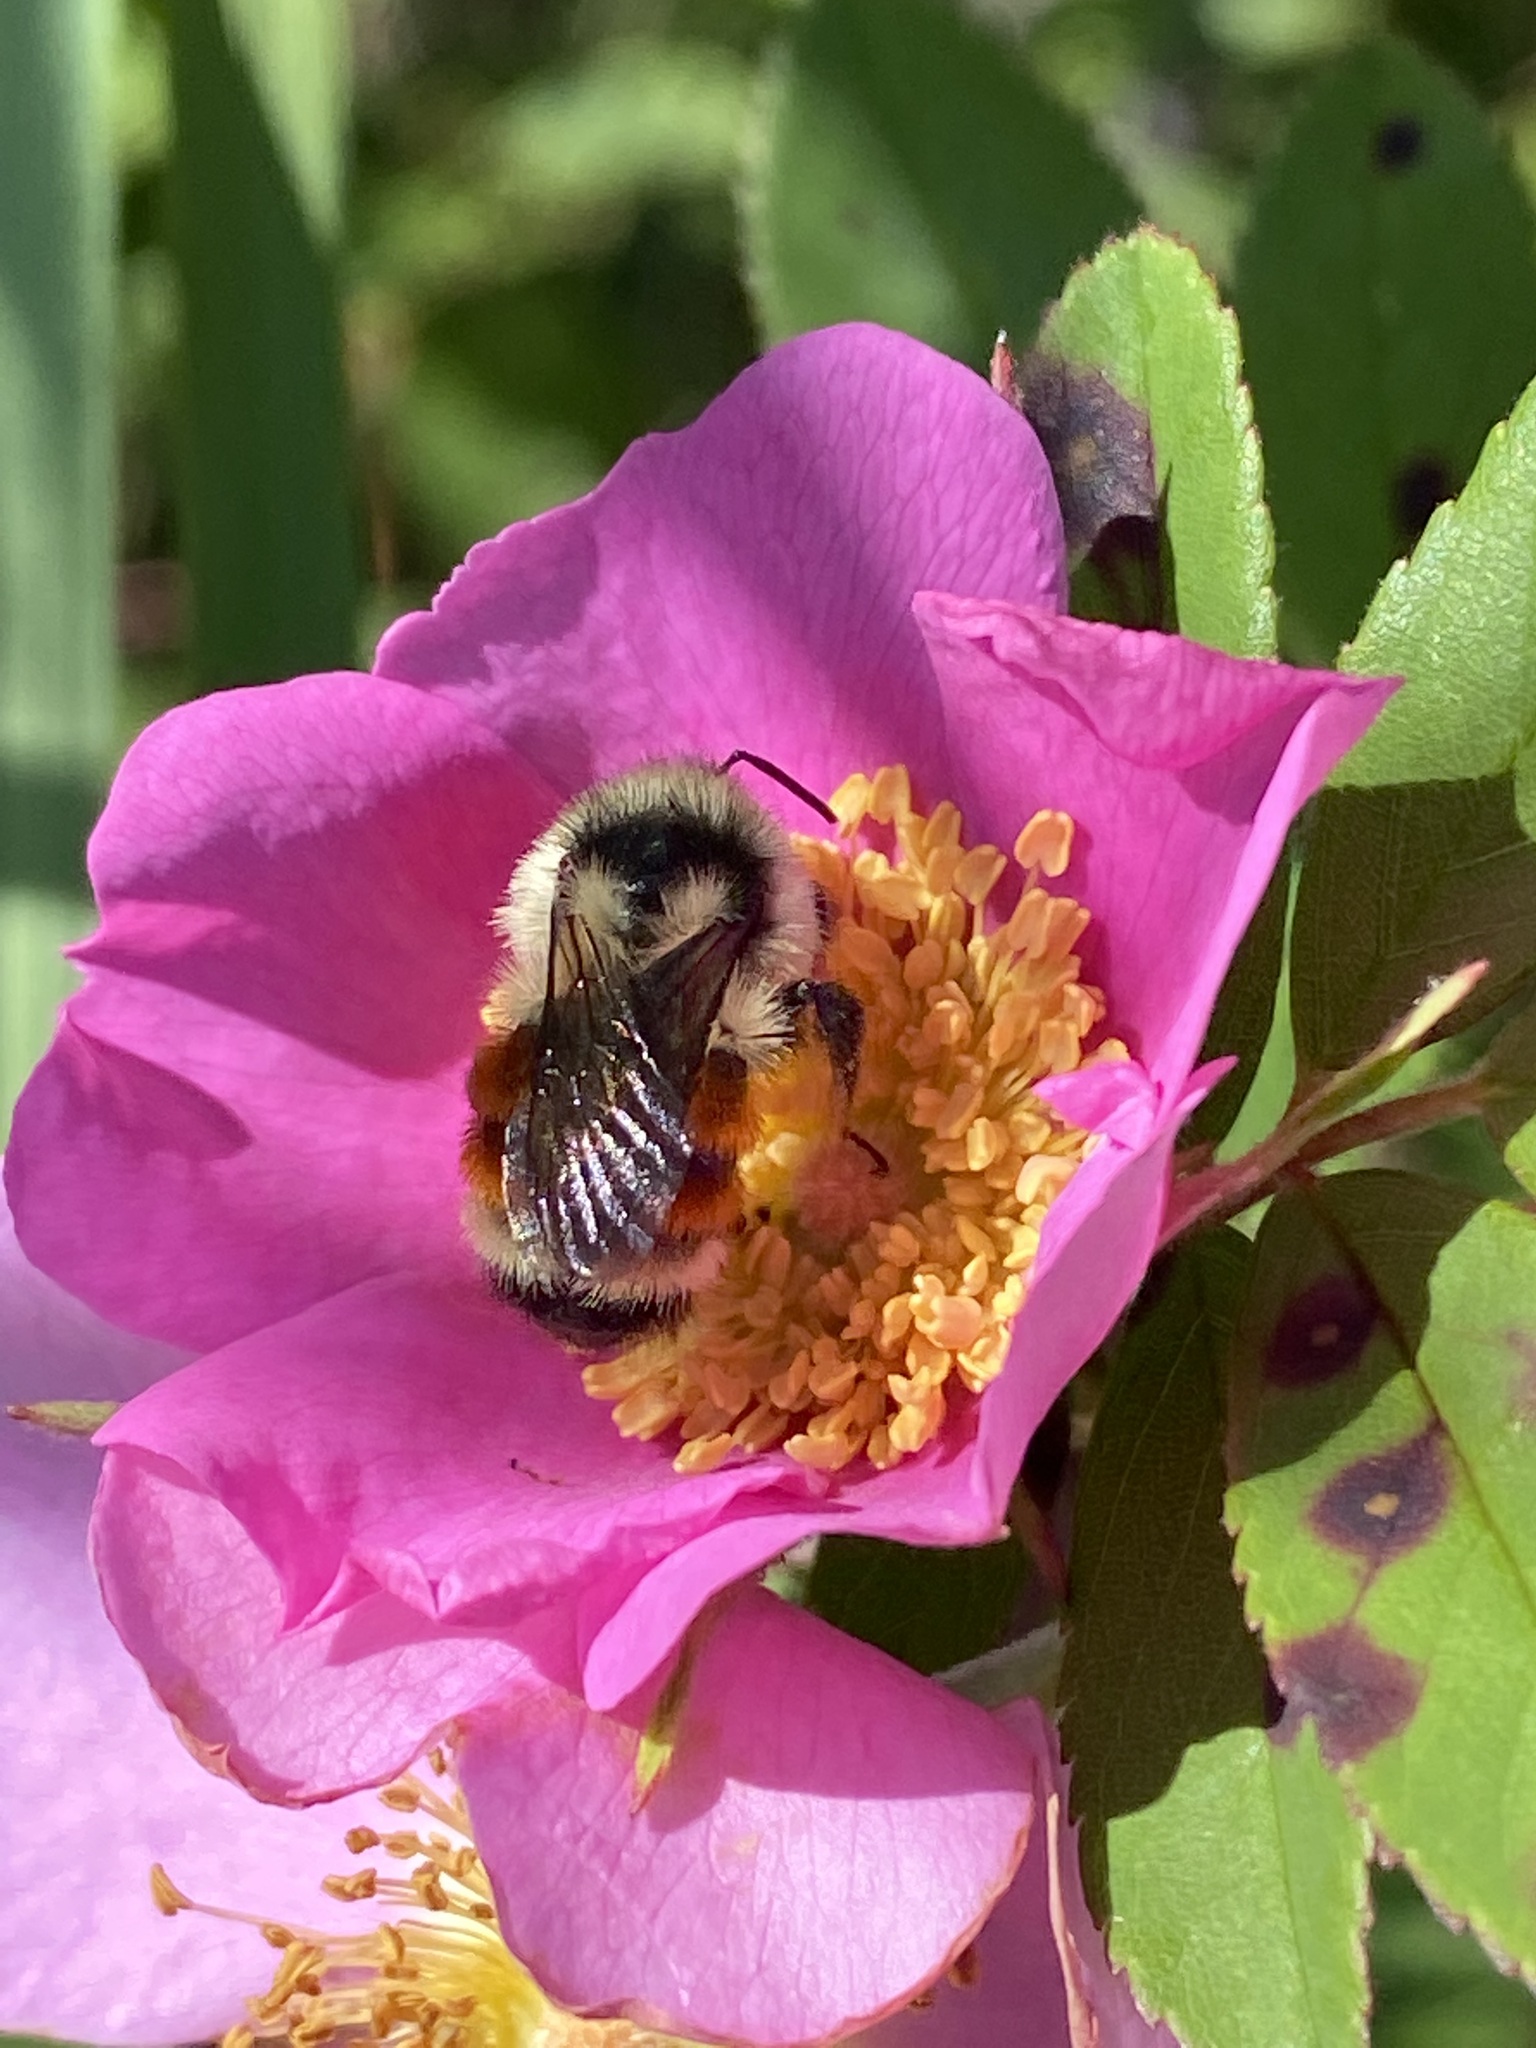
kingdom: Animalia
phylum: Arthropoda
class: Insecta
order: Hymenoptera
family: Apidae
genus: Bombus
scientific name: Bombus ternarius
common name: Tri-colored bumble bee
